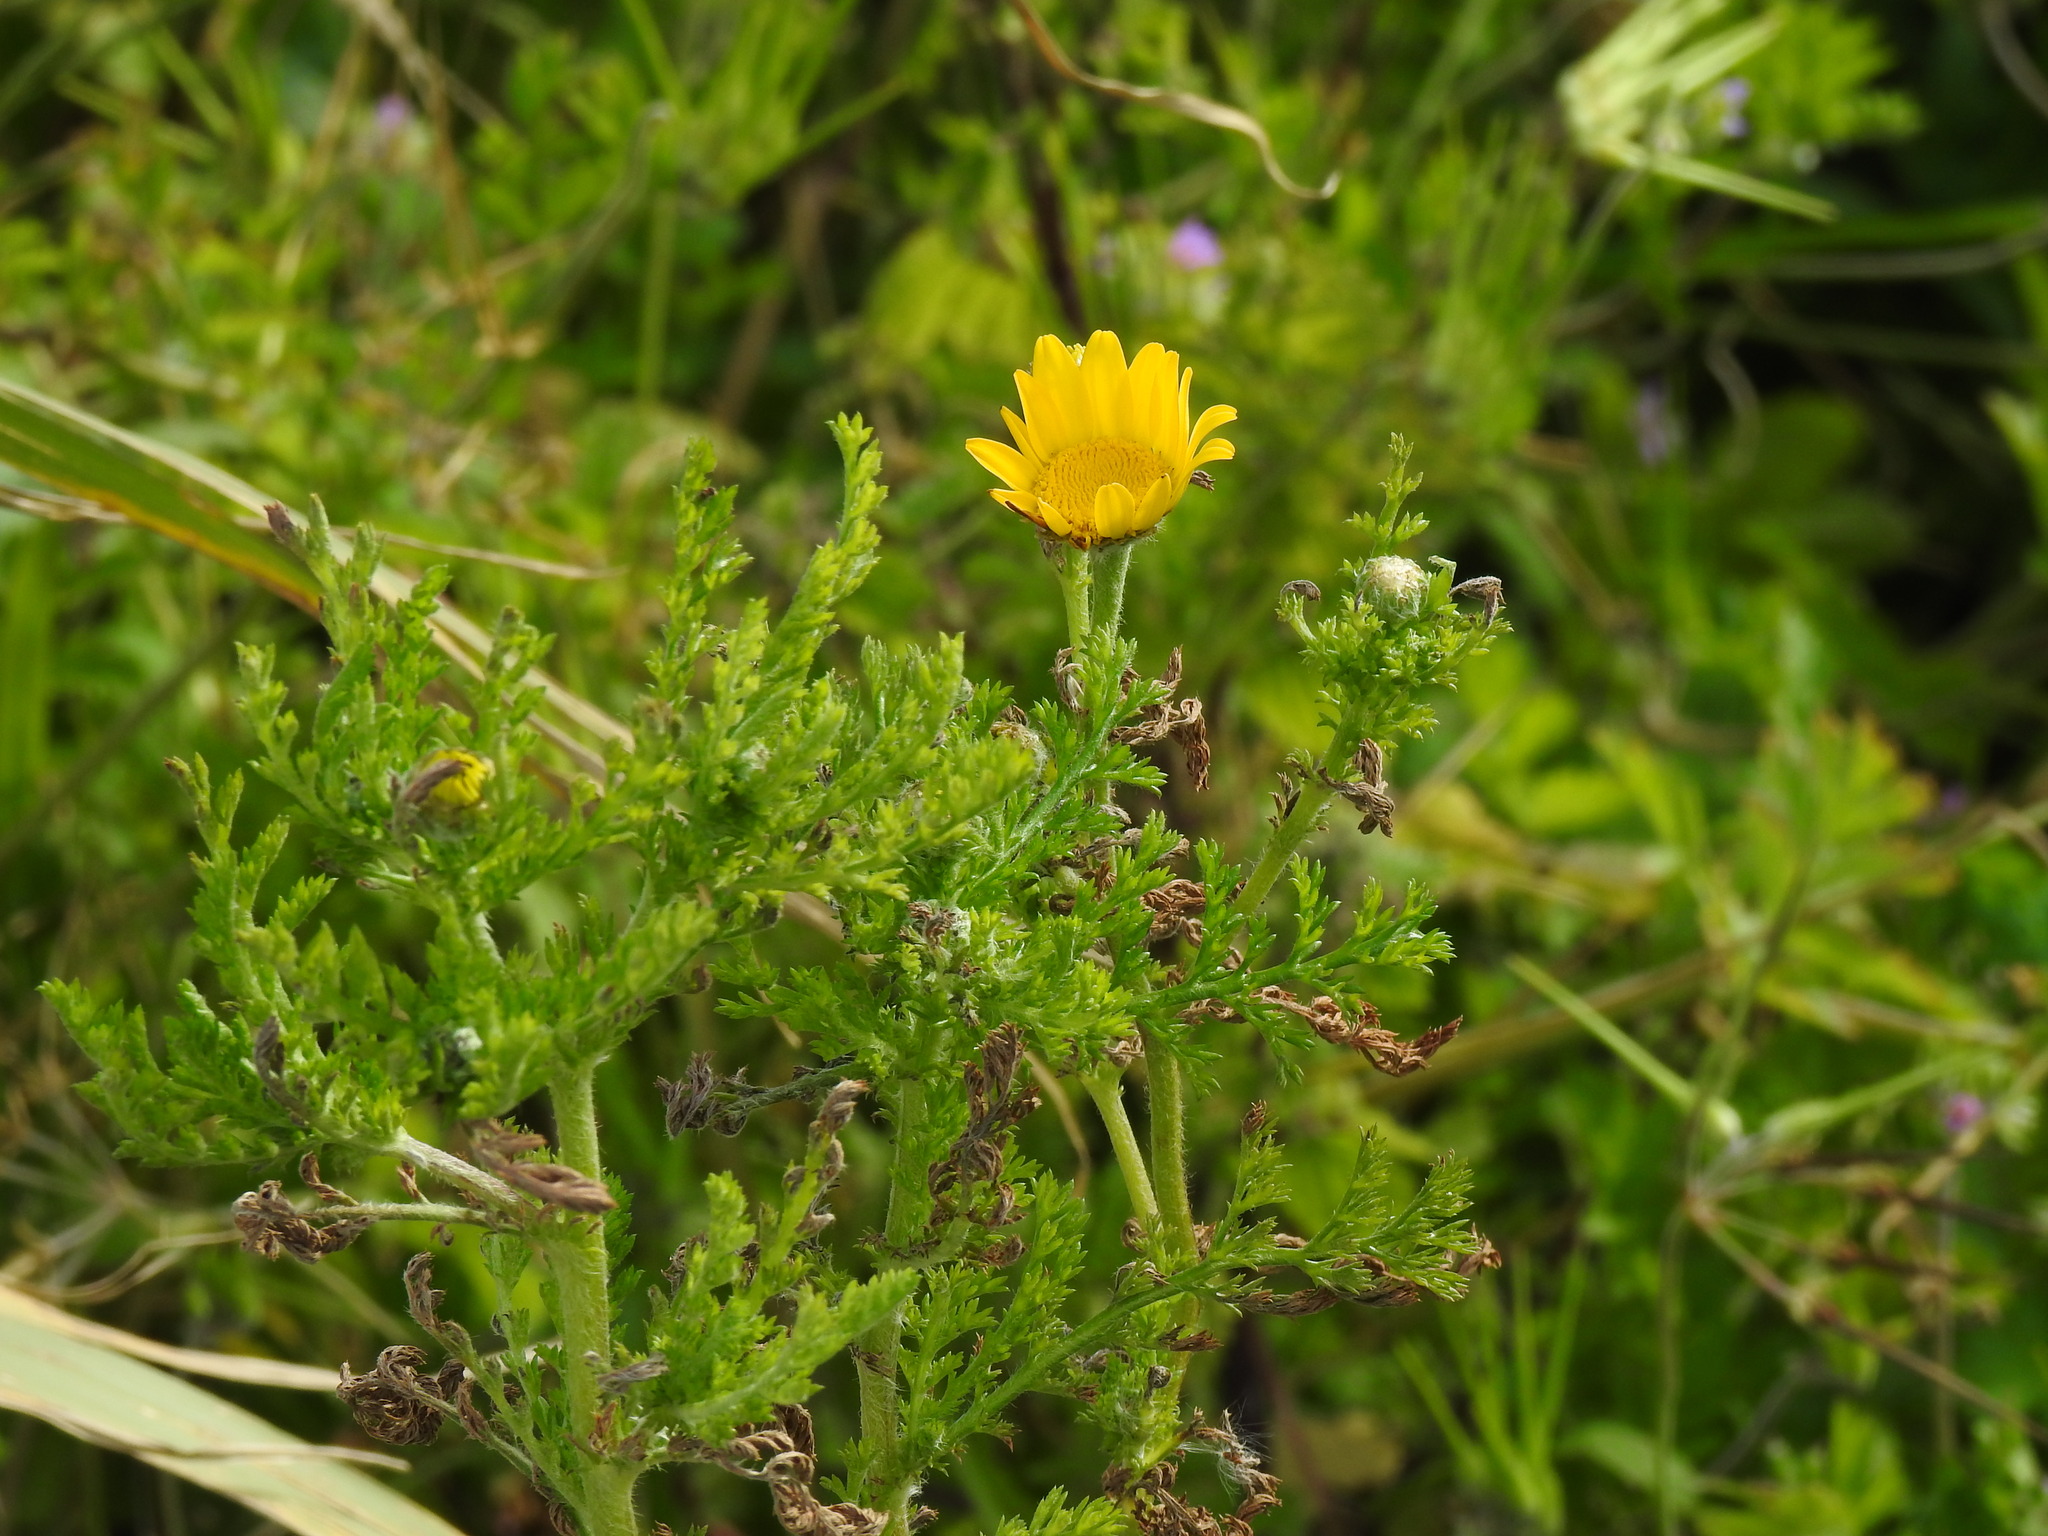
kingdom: Plantae
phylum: Tracheophyta
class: Magnoliopsida
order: Asterales
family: Asteraceae
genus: Anacyclus
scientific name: Anacyclus radiatus
